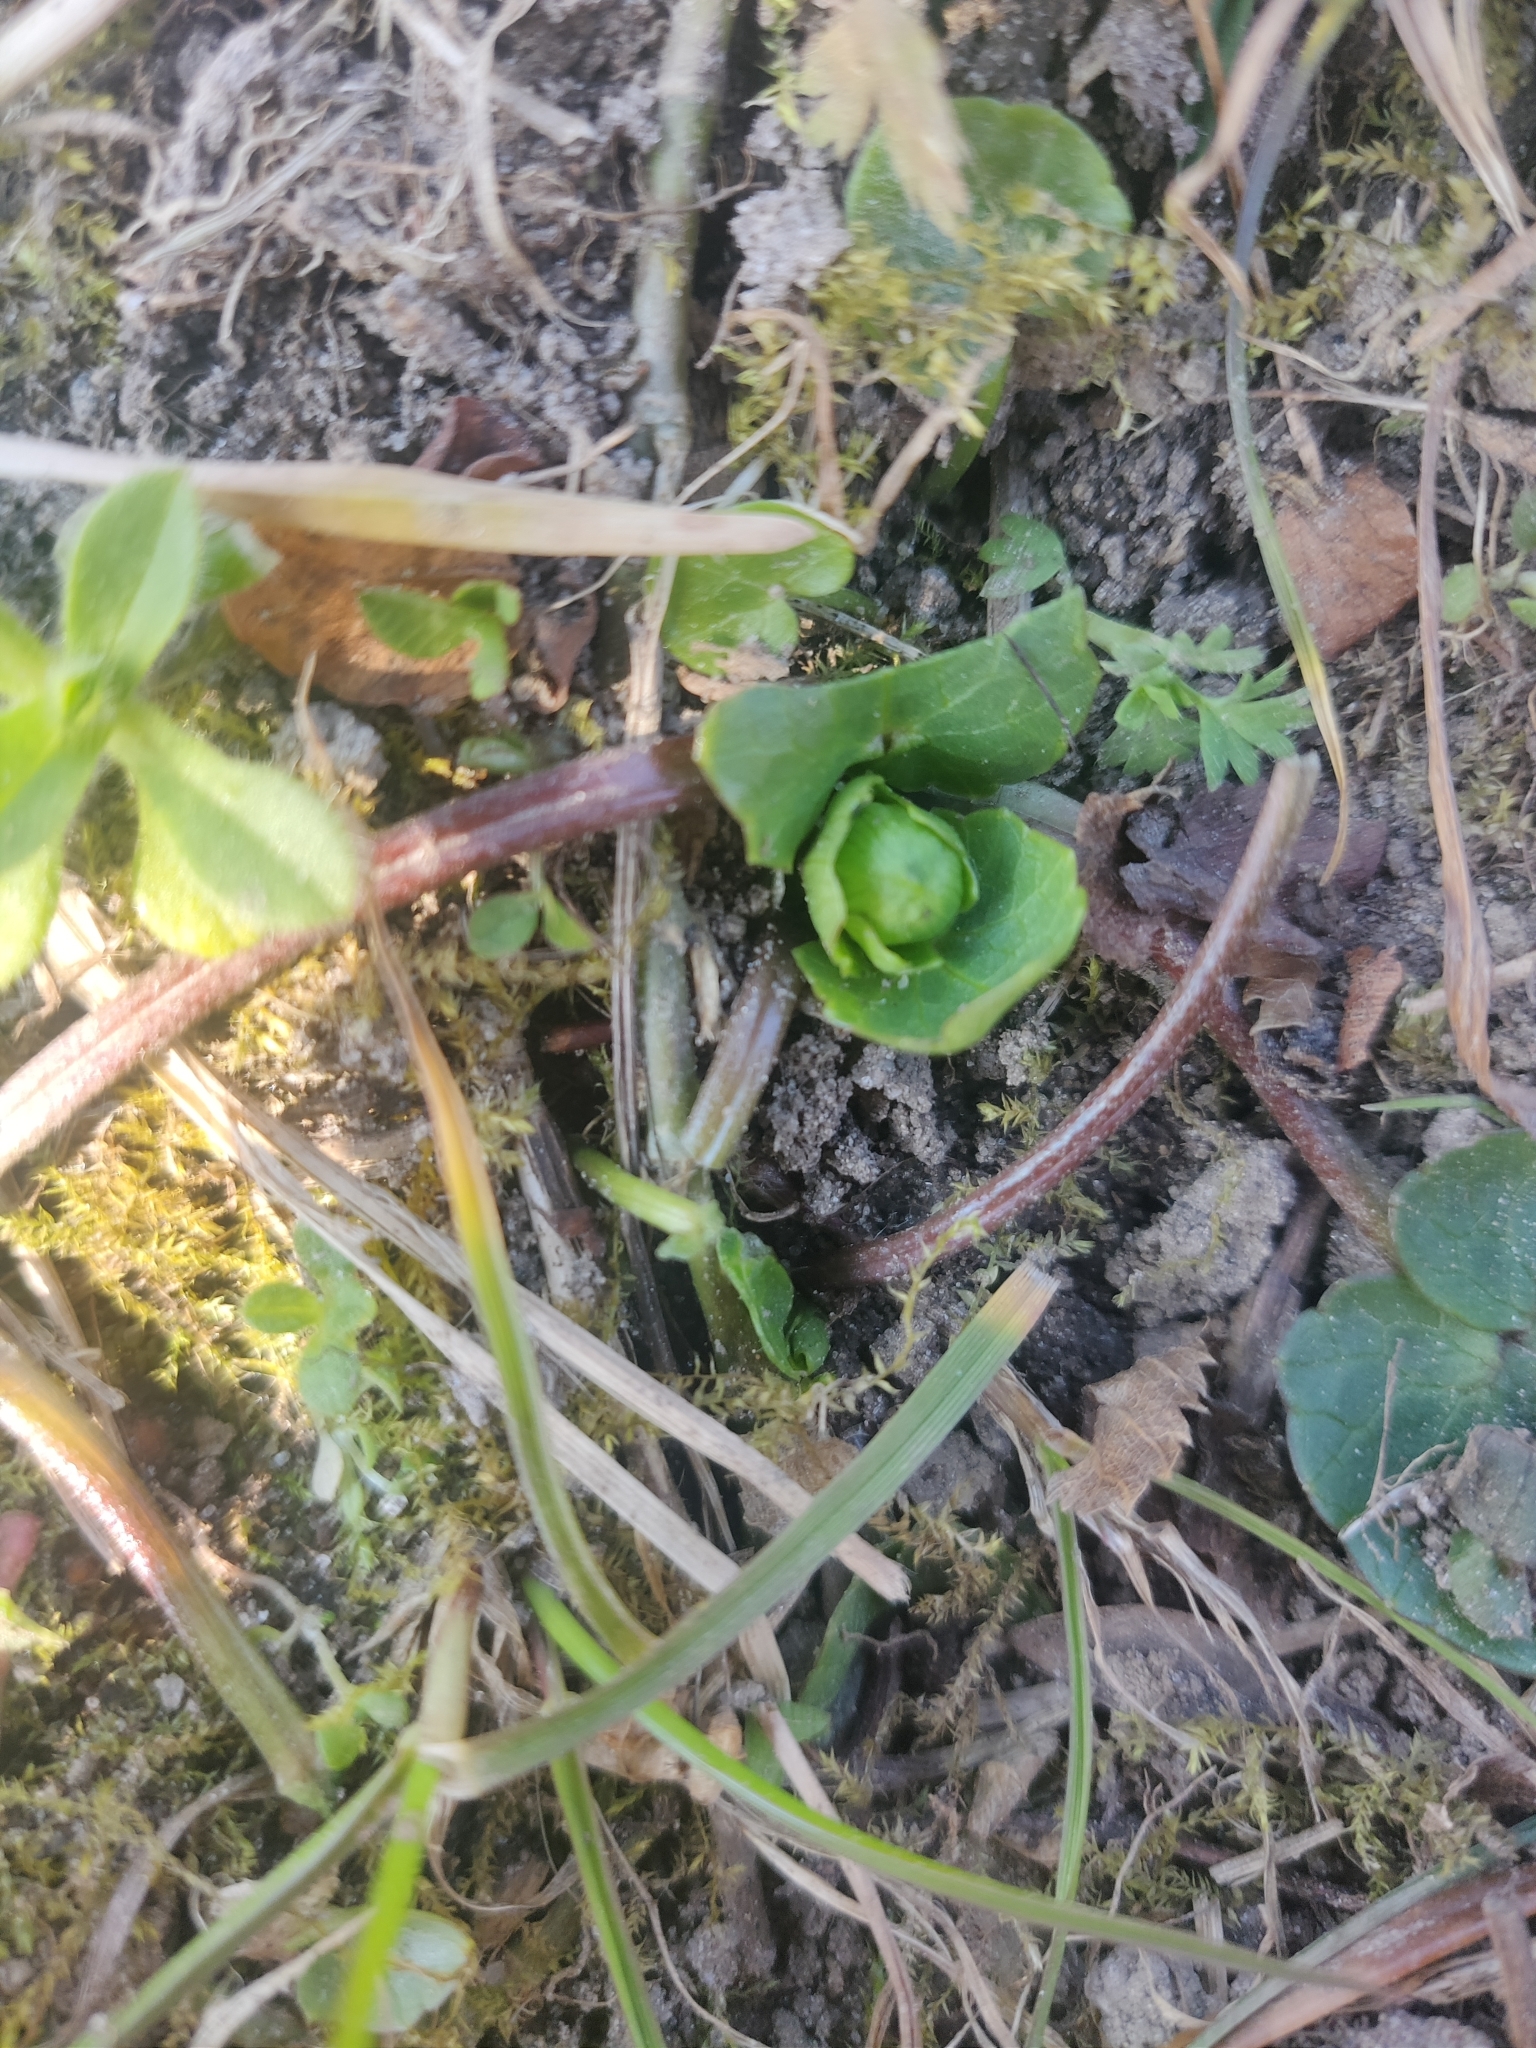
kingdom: Plantae
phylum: Tracheophyta
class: Magnoliopsida
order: Ranunculales
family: Ranunculaceae
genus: Ficaria
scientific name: Ficaria verna
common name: Lesser celandine
